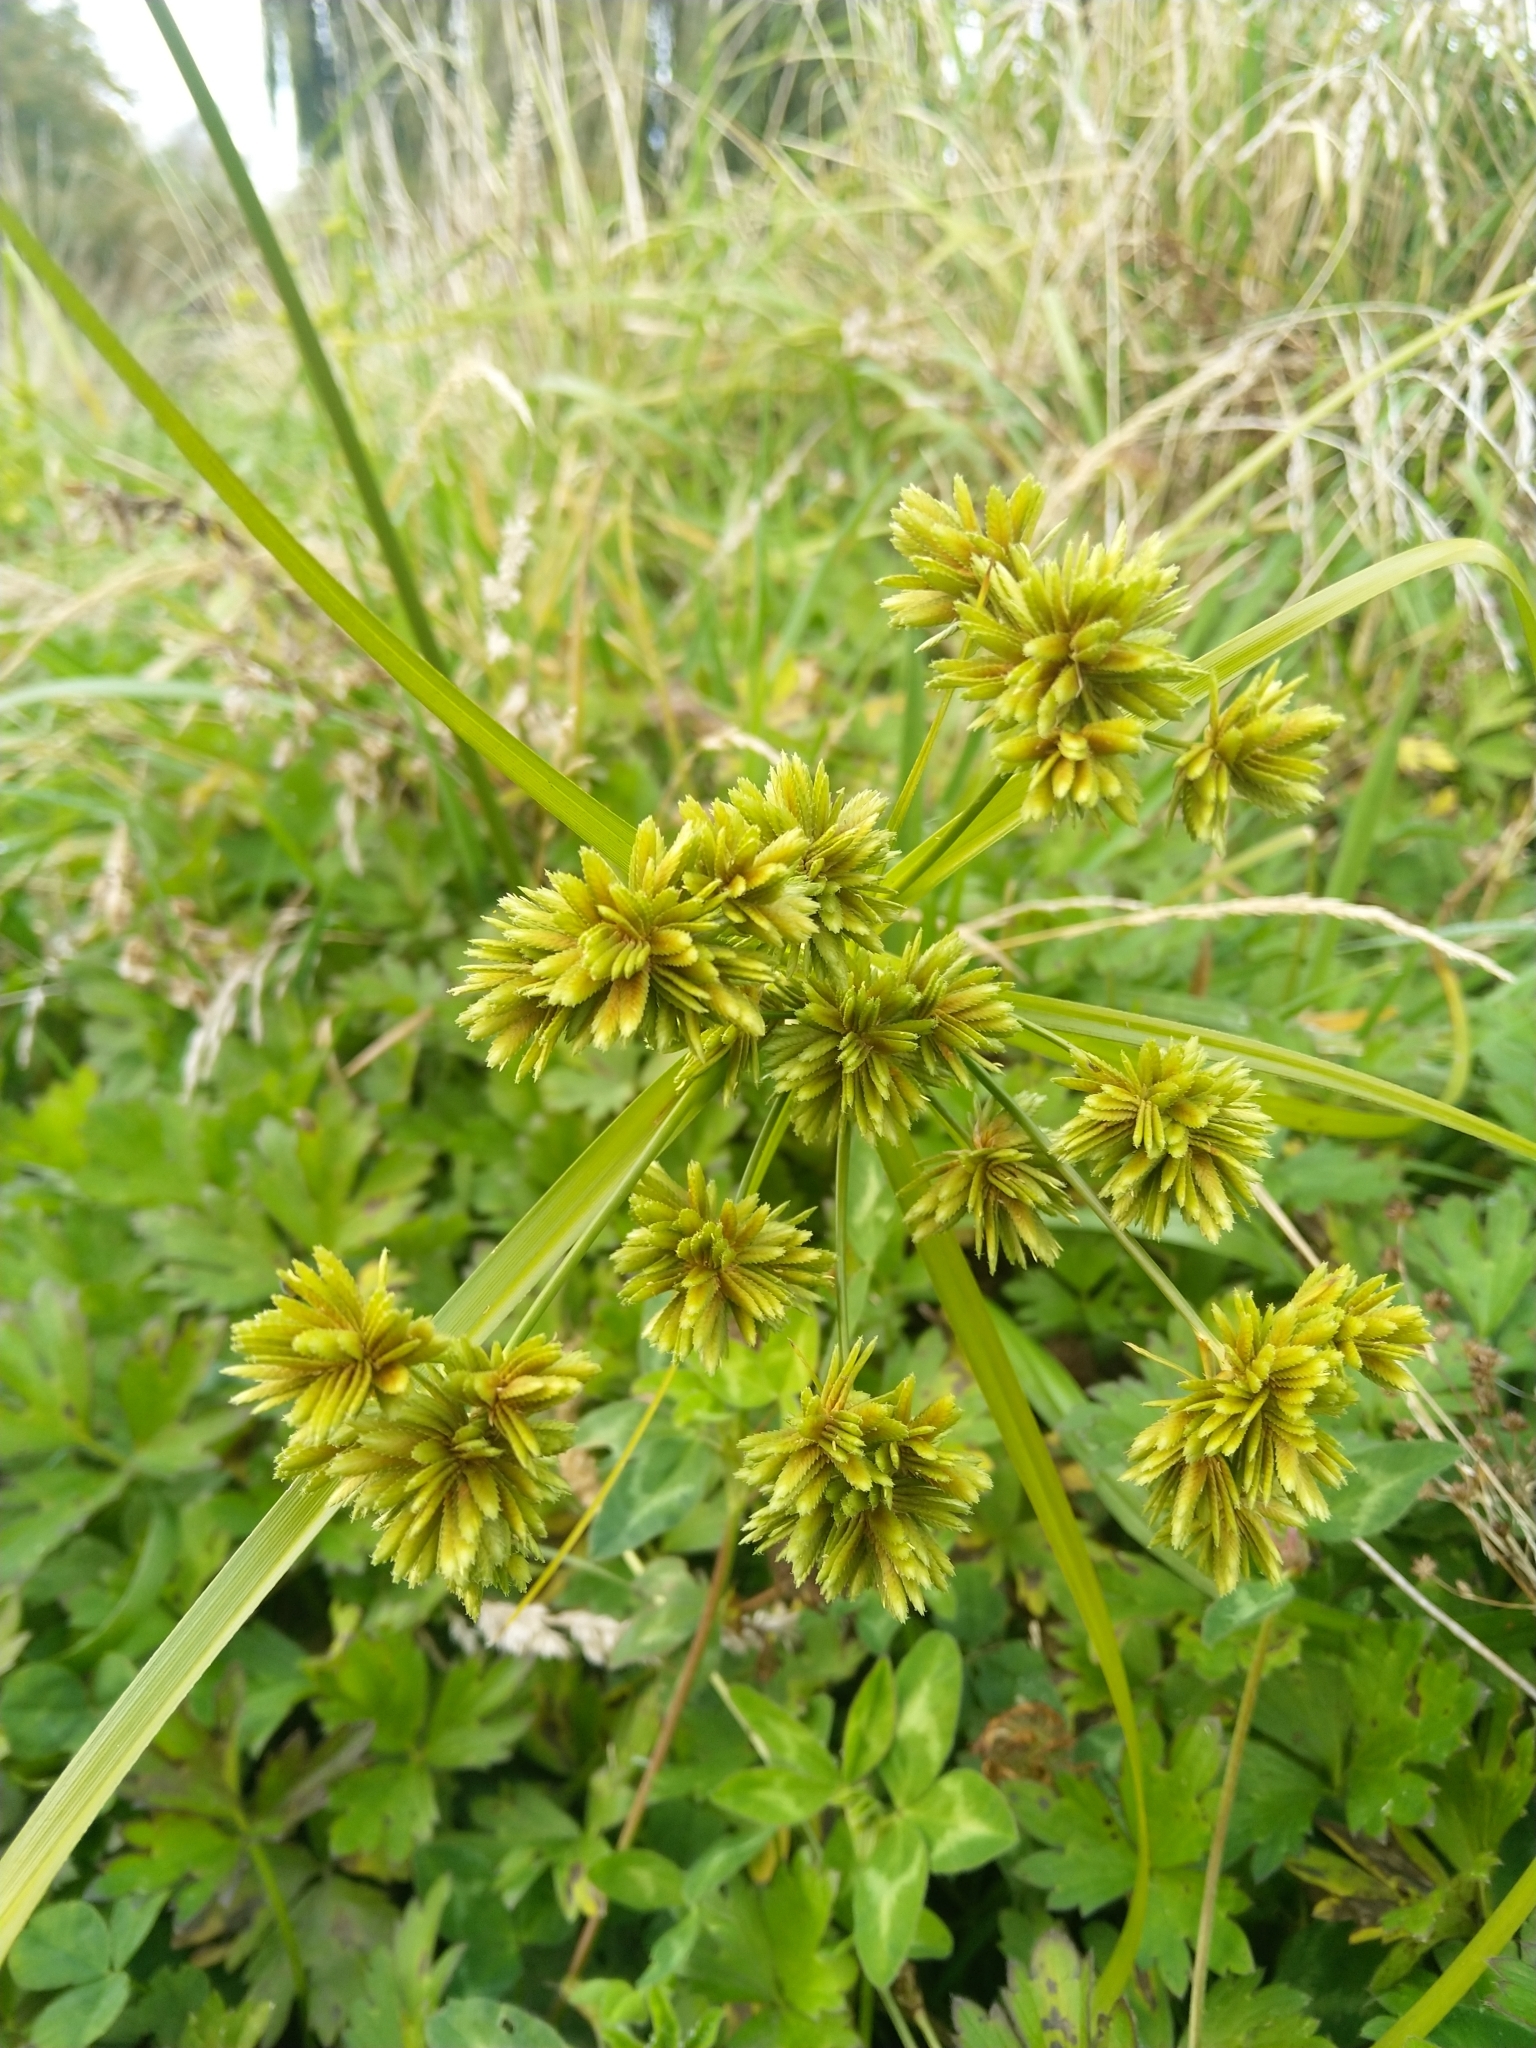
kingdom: Plantae
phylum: Tracheophyta
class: Liliopsida
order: Poales
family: Cyperaceae
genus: Cyperus
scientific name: Cyperus eragrostis
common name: Tall flatsedge
